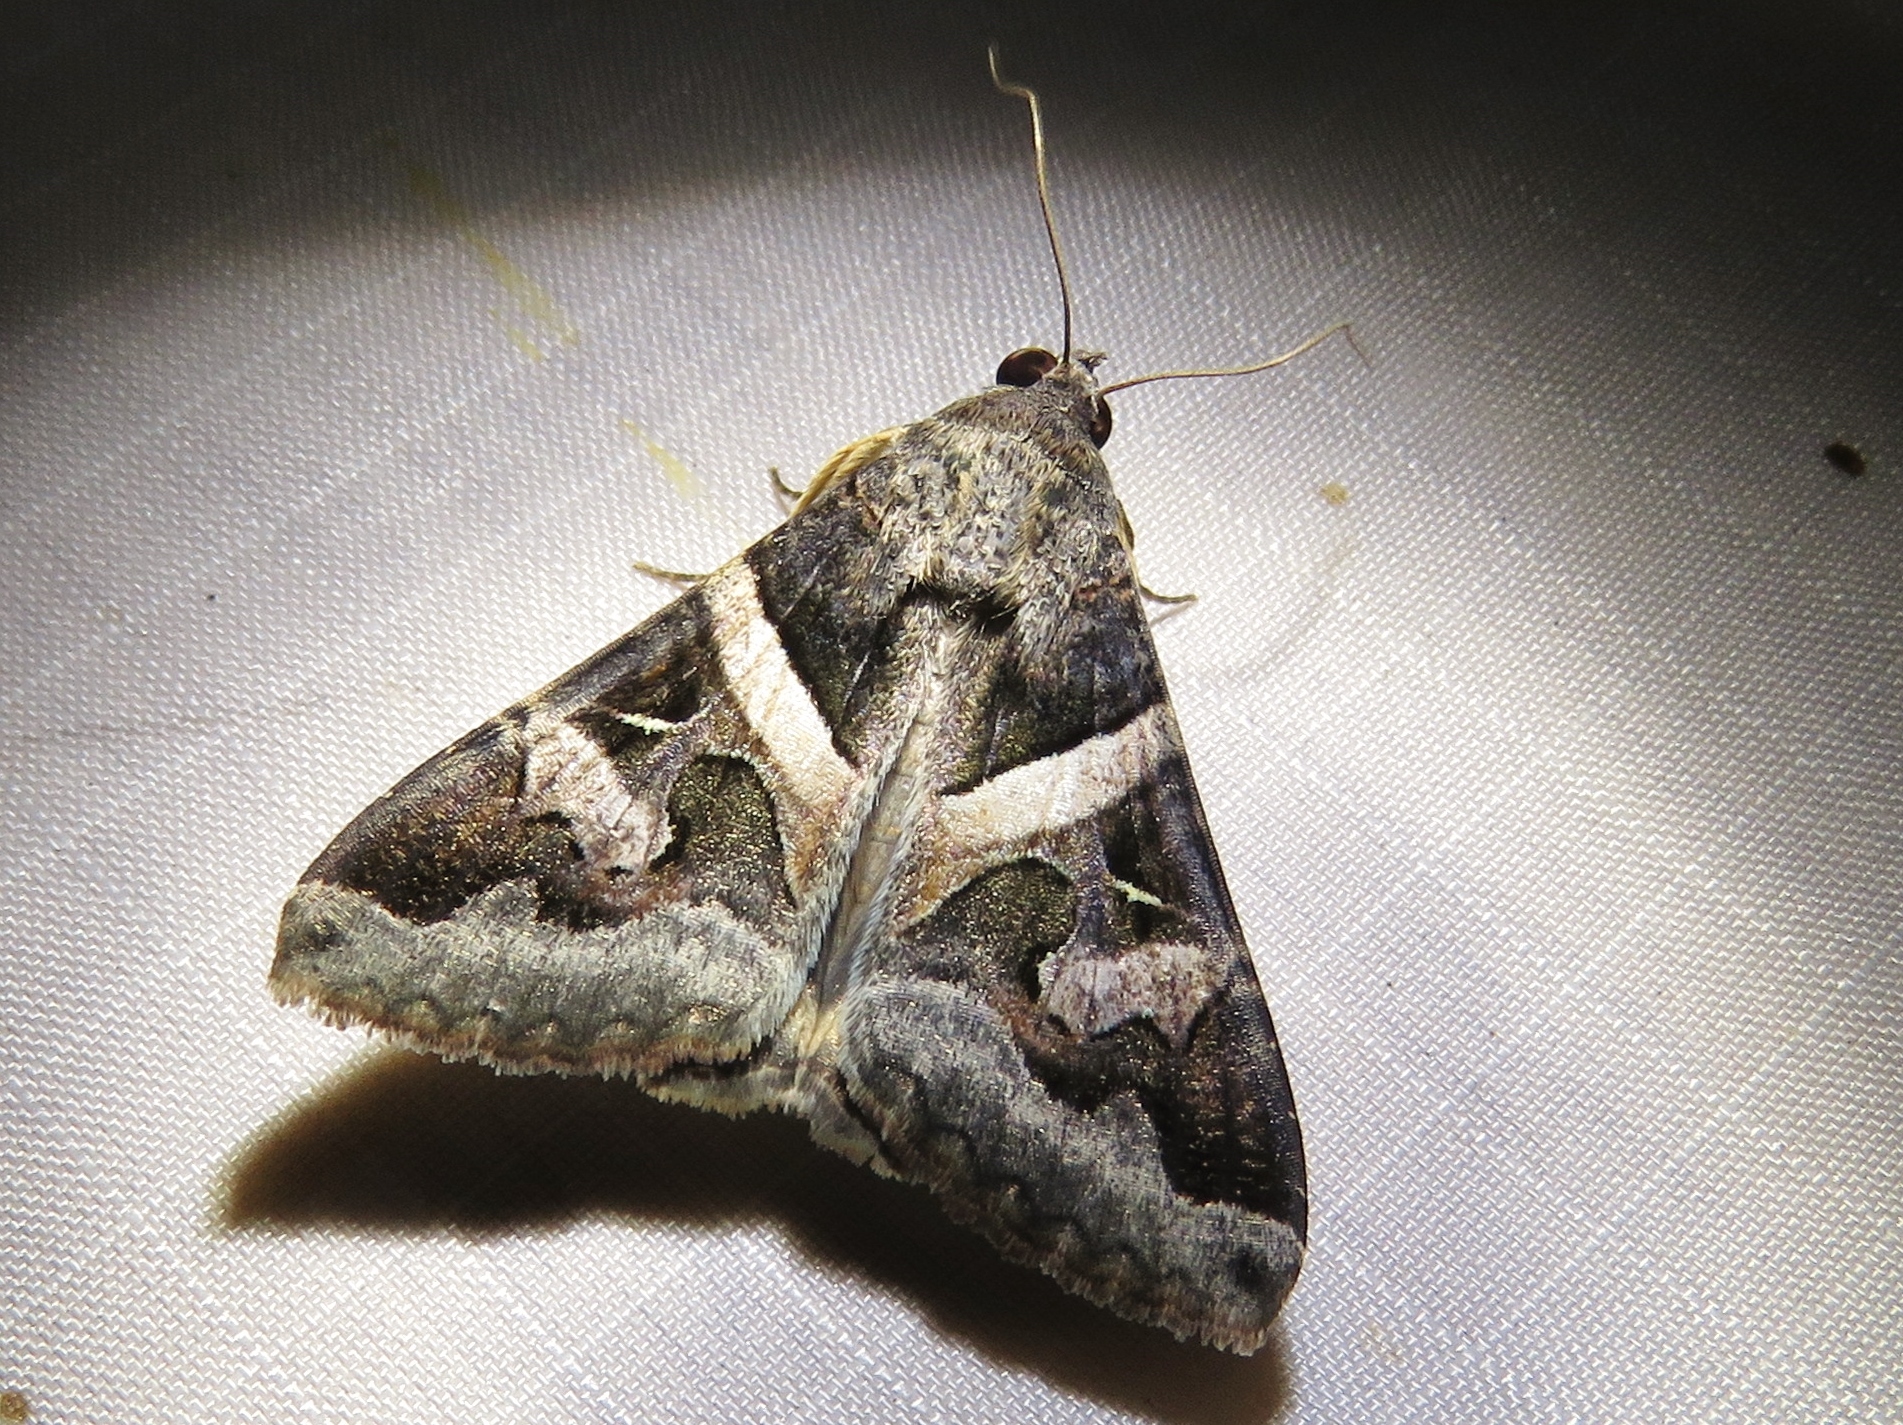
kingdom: Animalia
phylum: Arthropoda
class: Insecta
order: Lepidoptera
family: Erebidae
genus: Melipotis
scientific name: Melipotis indomita
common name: Moth
